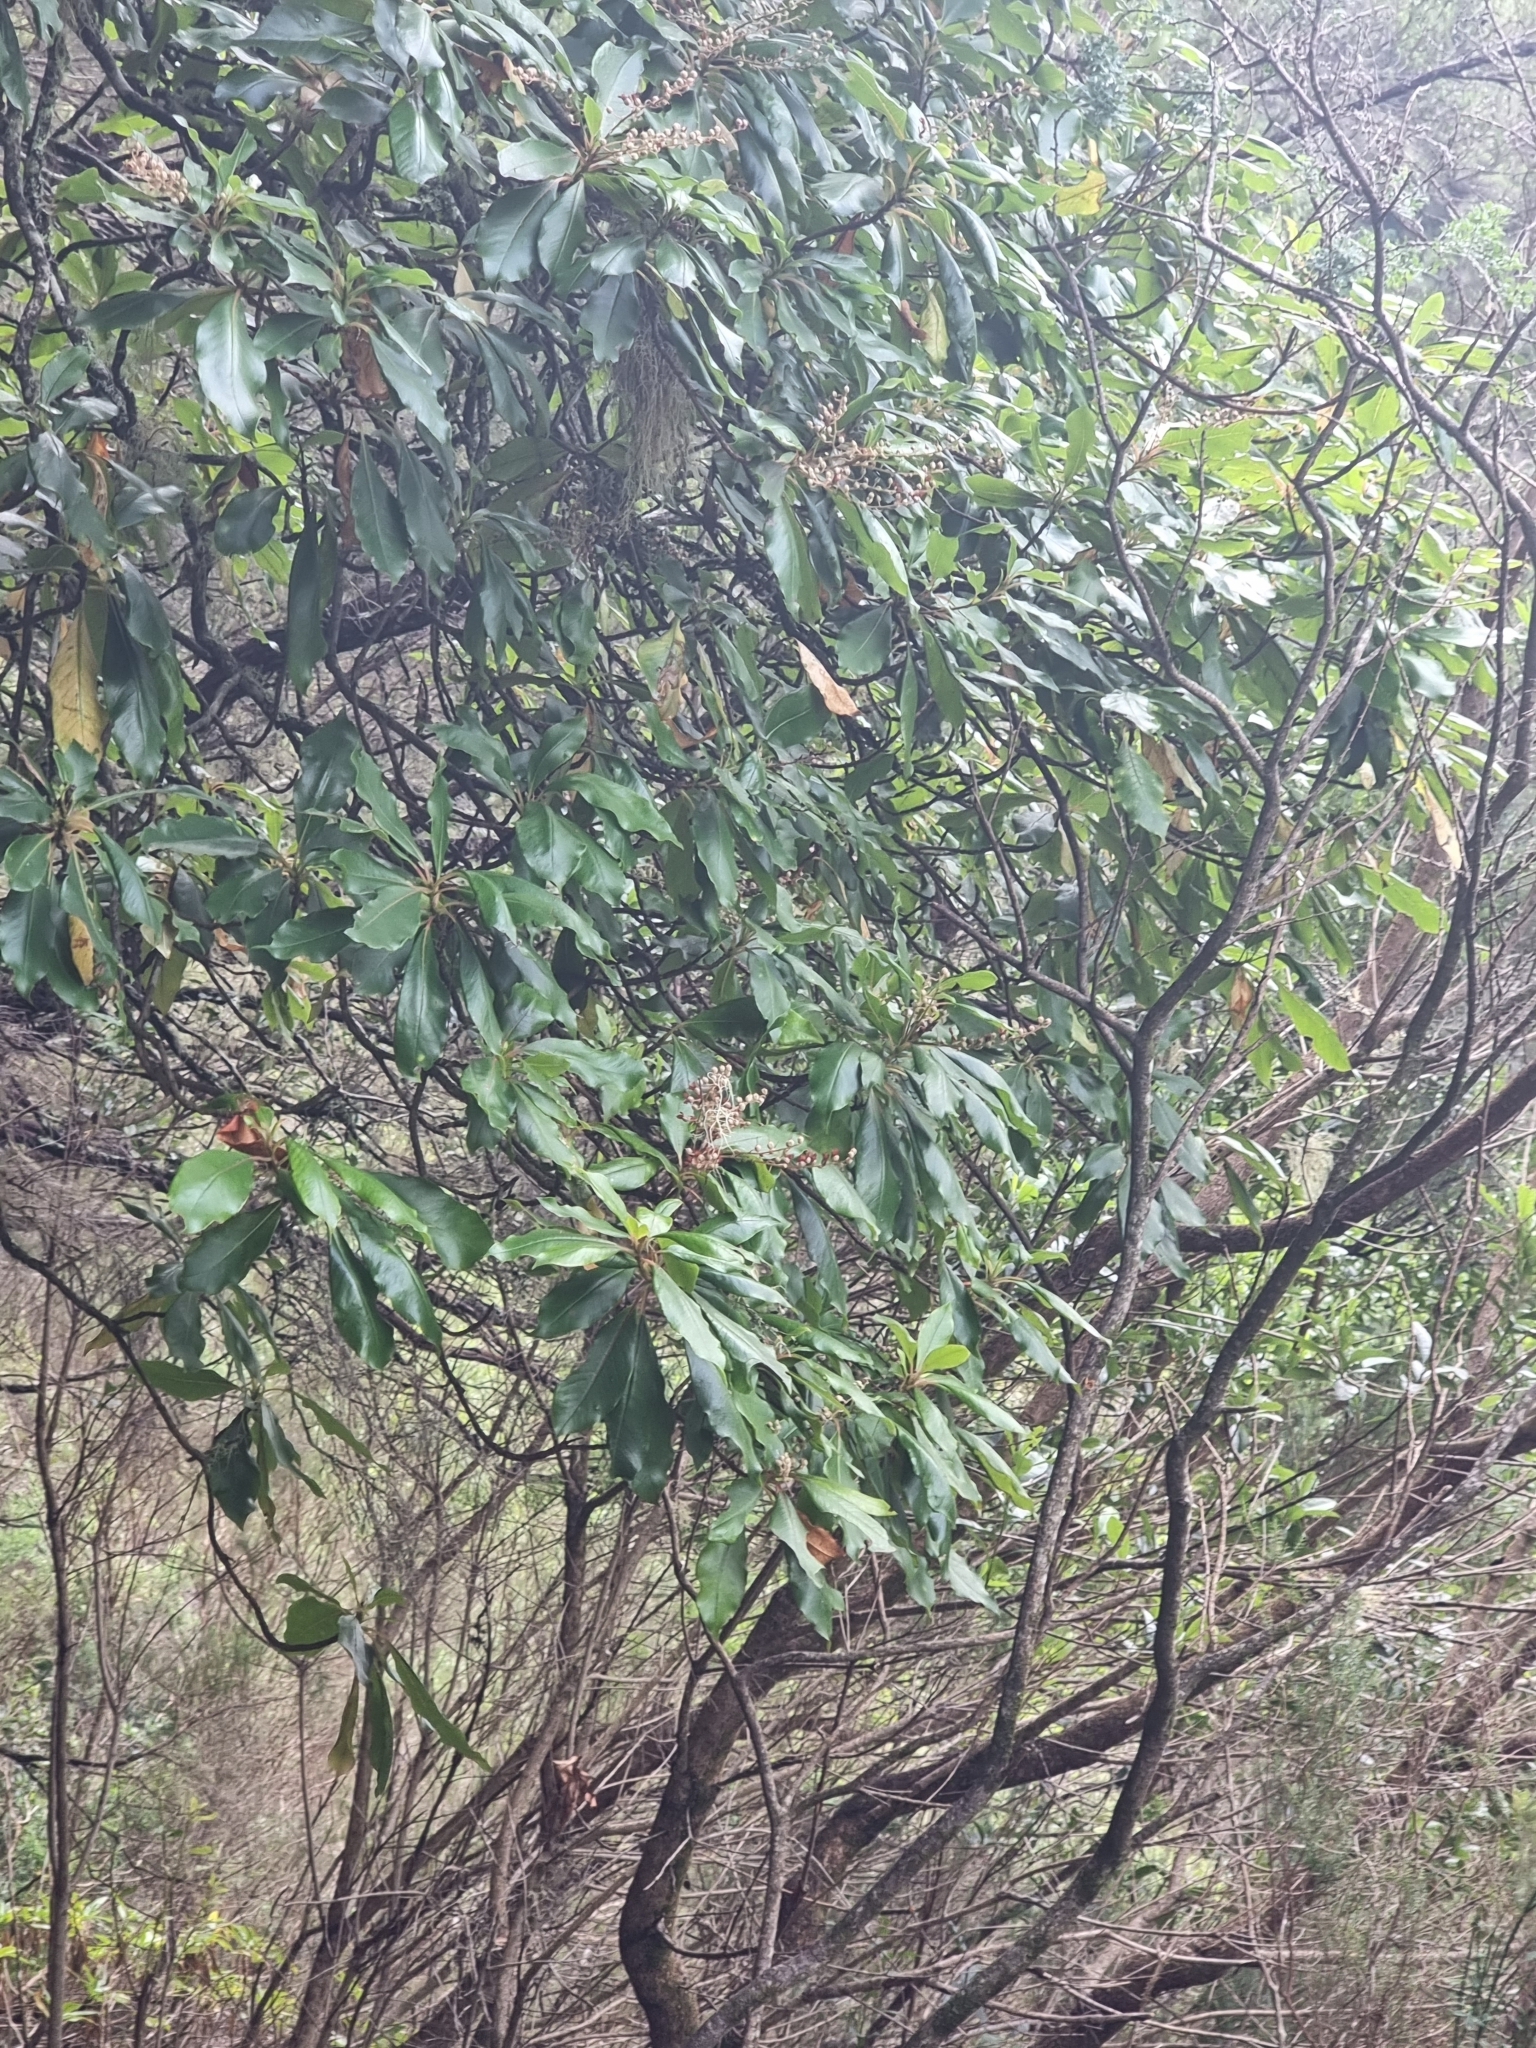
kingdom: Plantae
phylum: Tracheophyta
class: Magnoliopsida
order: Ericales
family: Clethraceae
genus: Clethra
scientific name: Clethra arborea
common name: Lily-of-the-valley-tree
